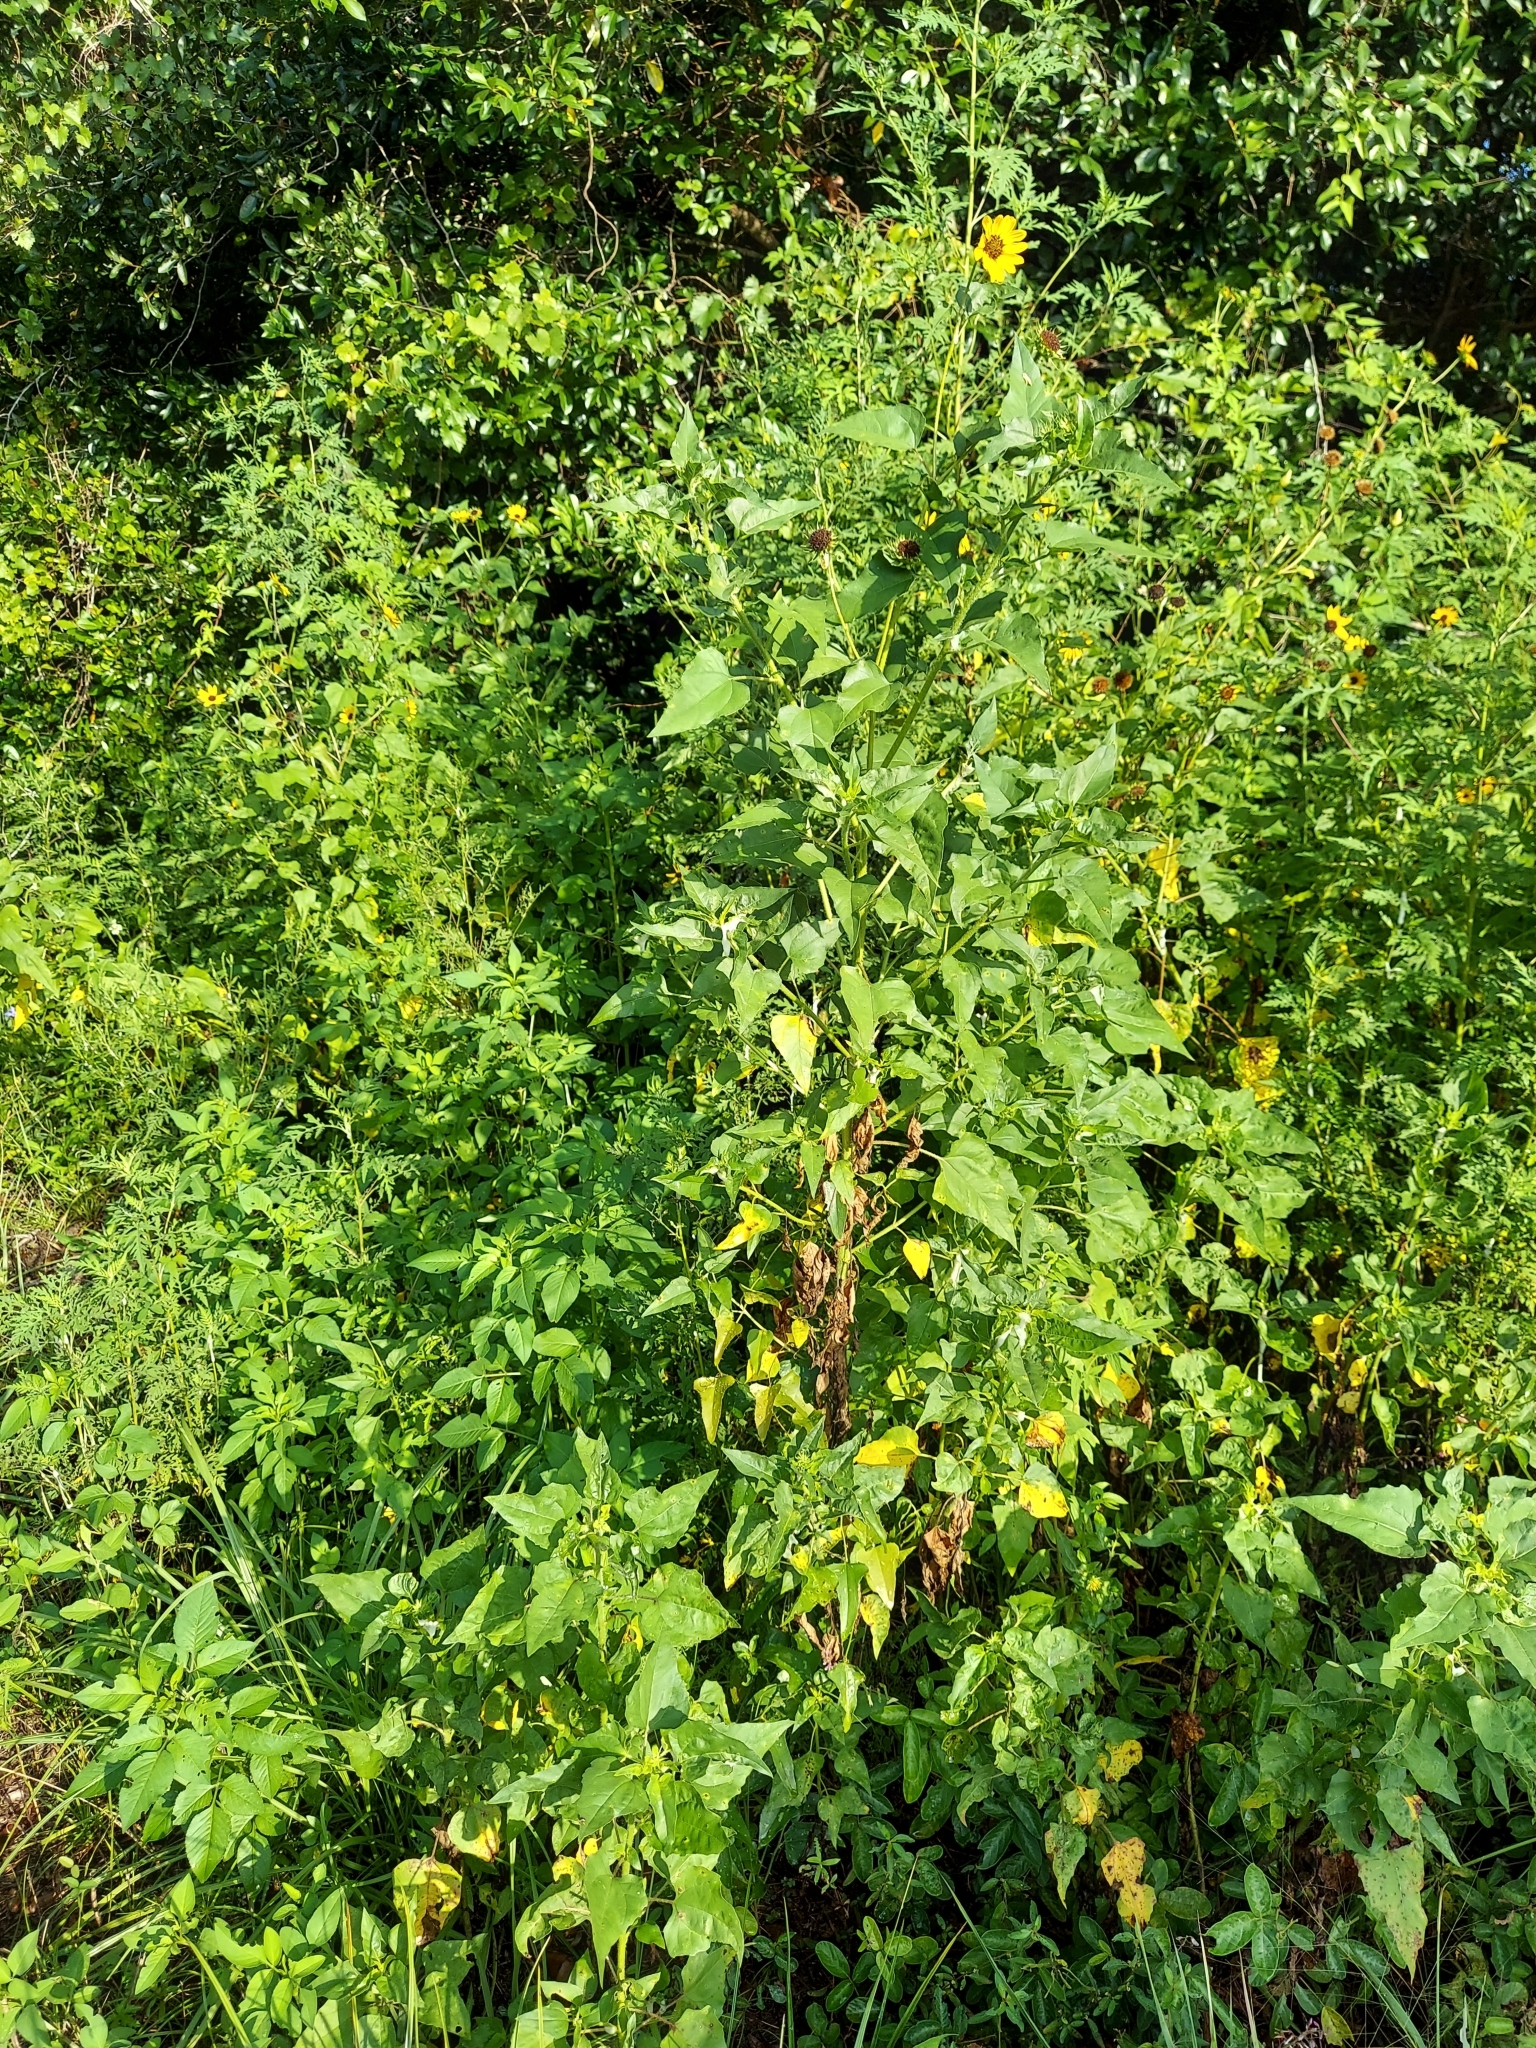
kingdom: Plantae
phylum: Tracheophyta
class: Magnoliopsida
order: Asterales
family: Asteraceae
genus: Helianthus
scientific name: Helianthus debilis
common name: Weak sunflower
